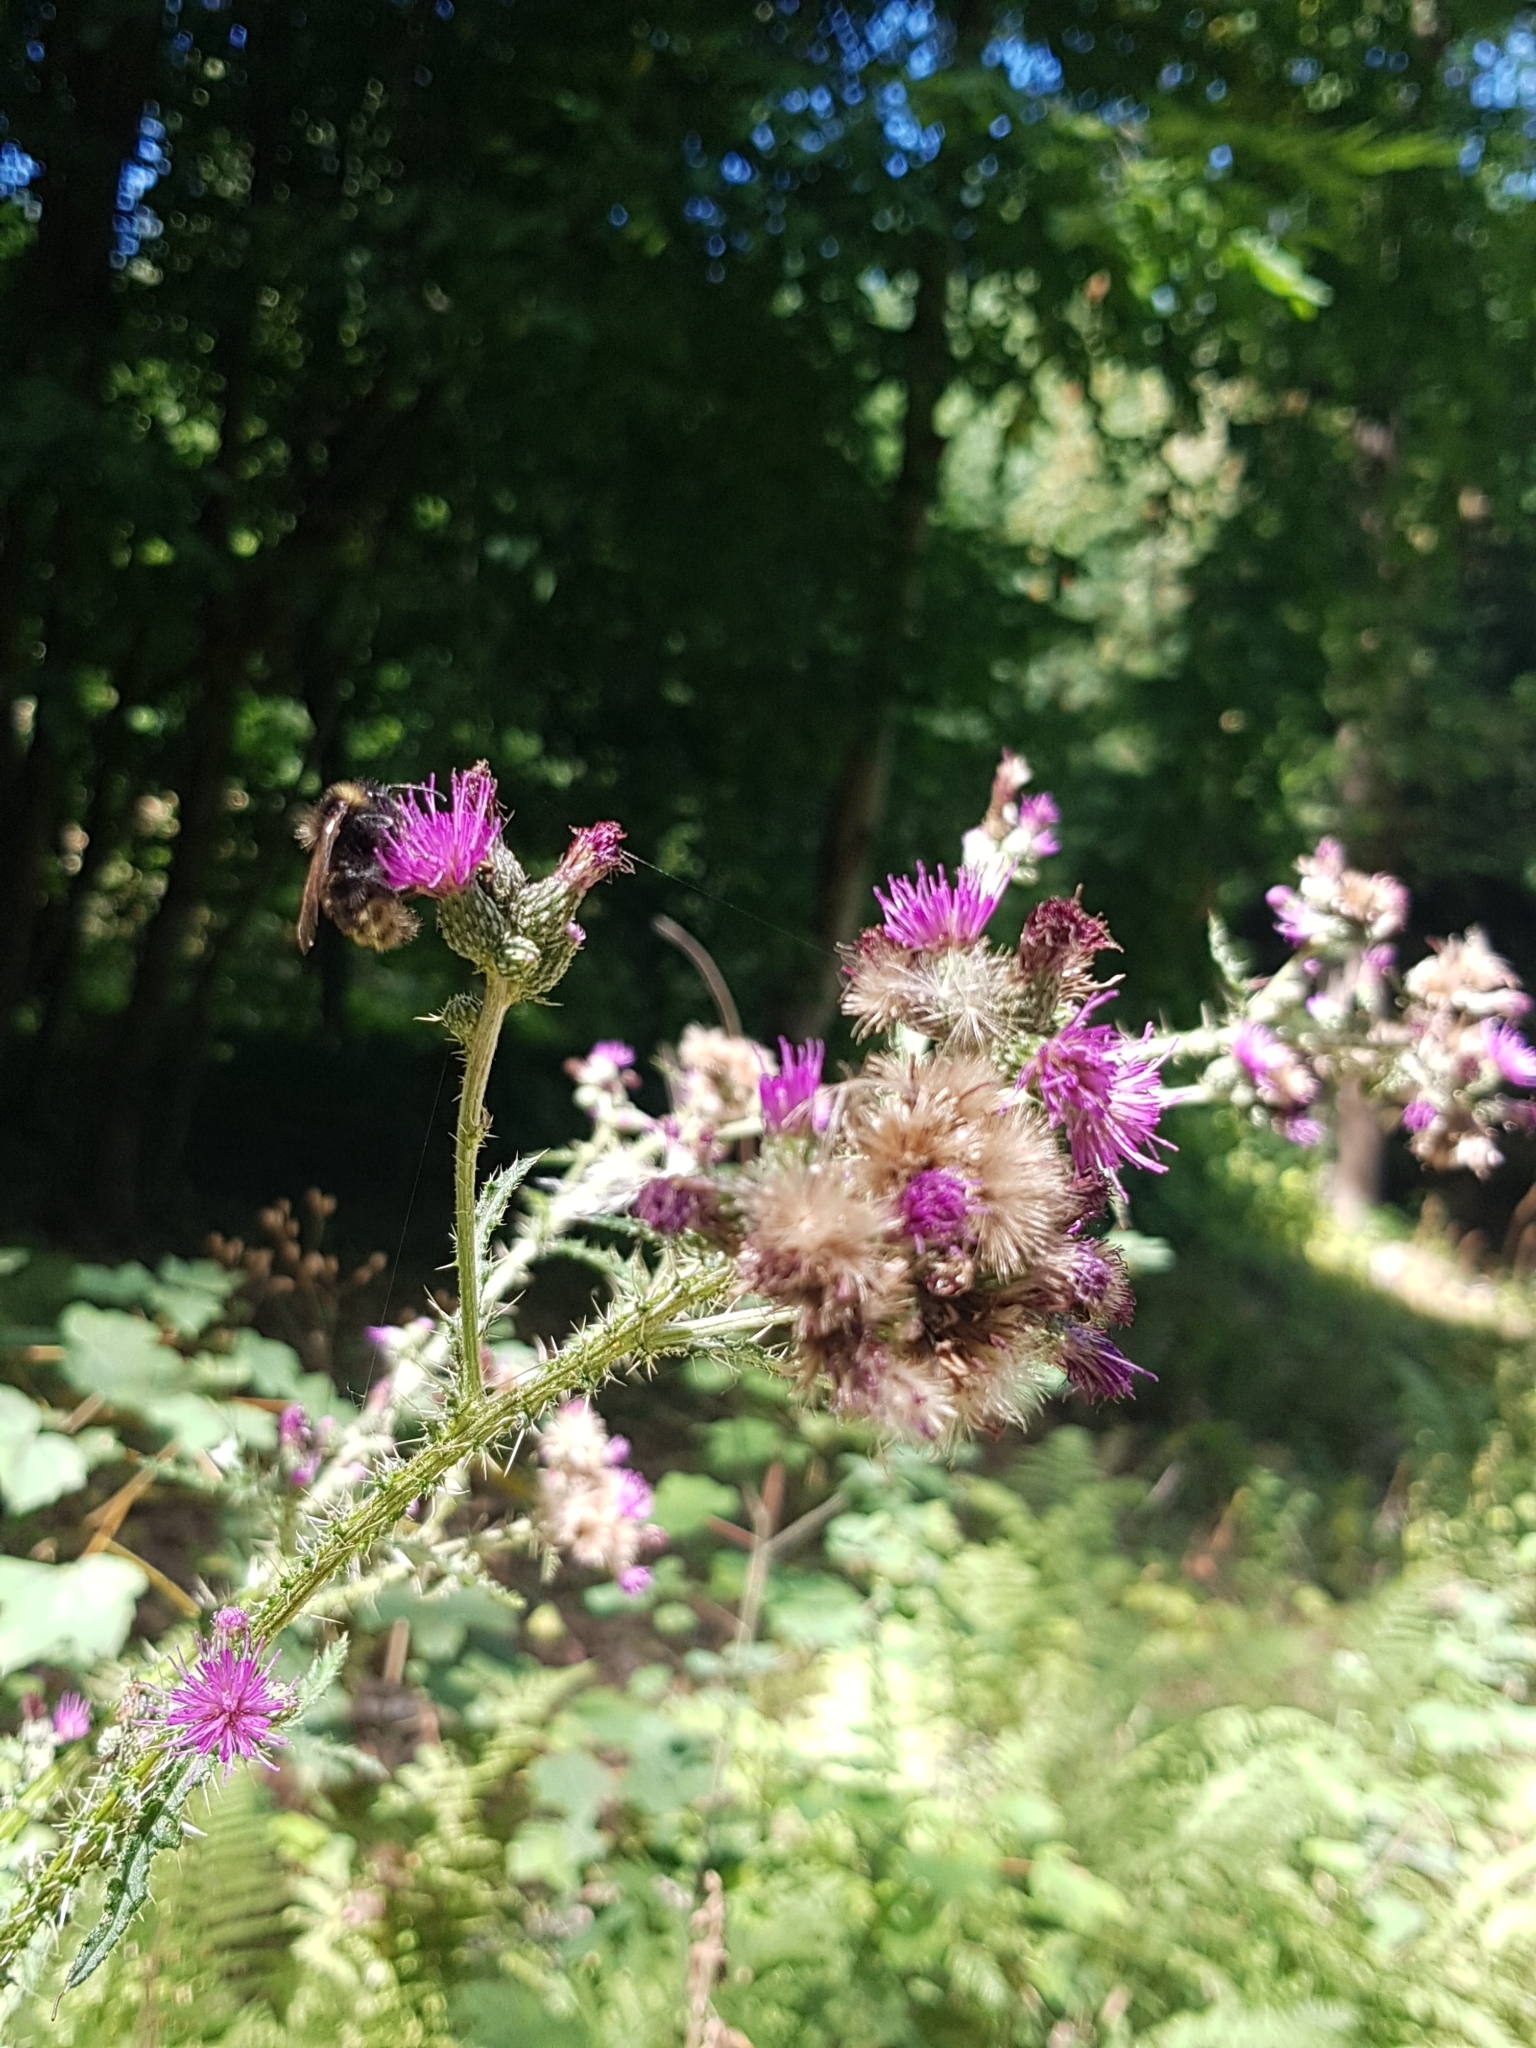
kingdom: Plantae
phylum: Tracheophyta
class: Magnoliopsida
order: Asterales
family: Asteraceae
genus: Cirsium
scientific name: Cirsium palustre
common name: Marsh thistle
